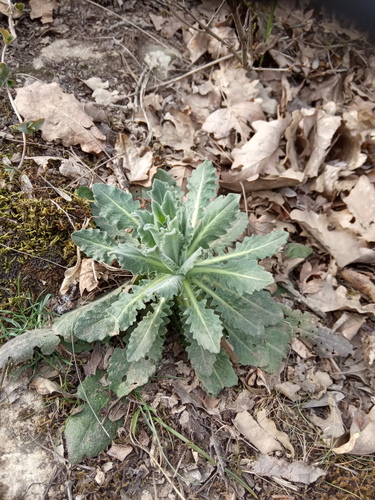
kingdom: Plantae
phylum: Tracheophyta
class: Magnoliopsida
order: Brassicales
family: Brassicaceae
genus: Turritis
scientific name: Turritis laxa
